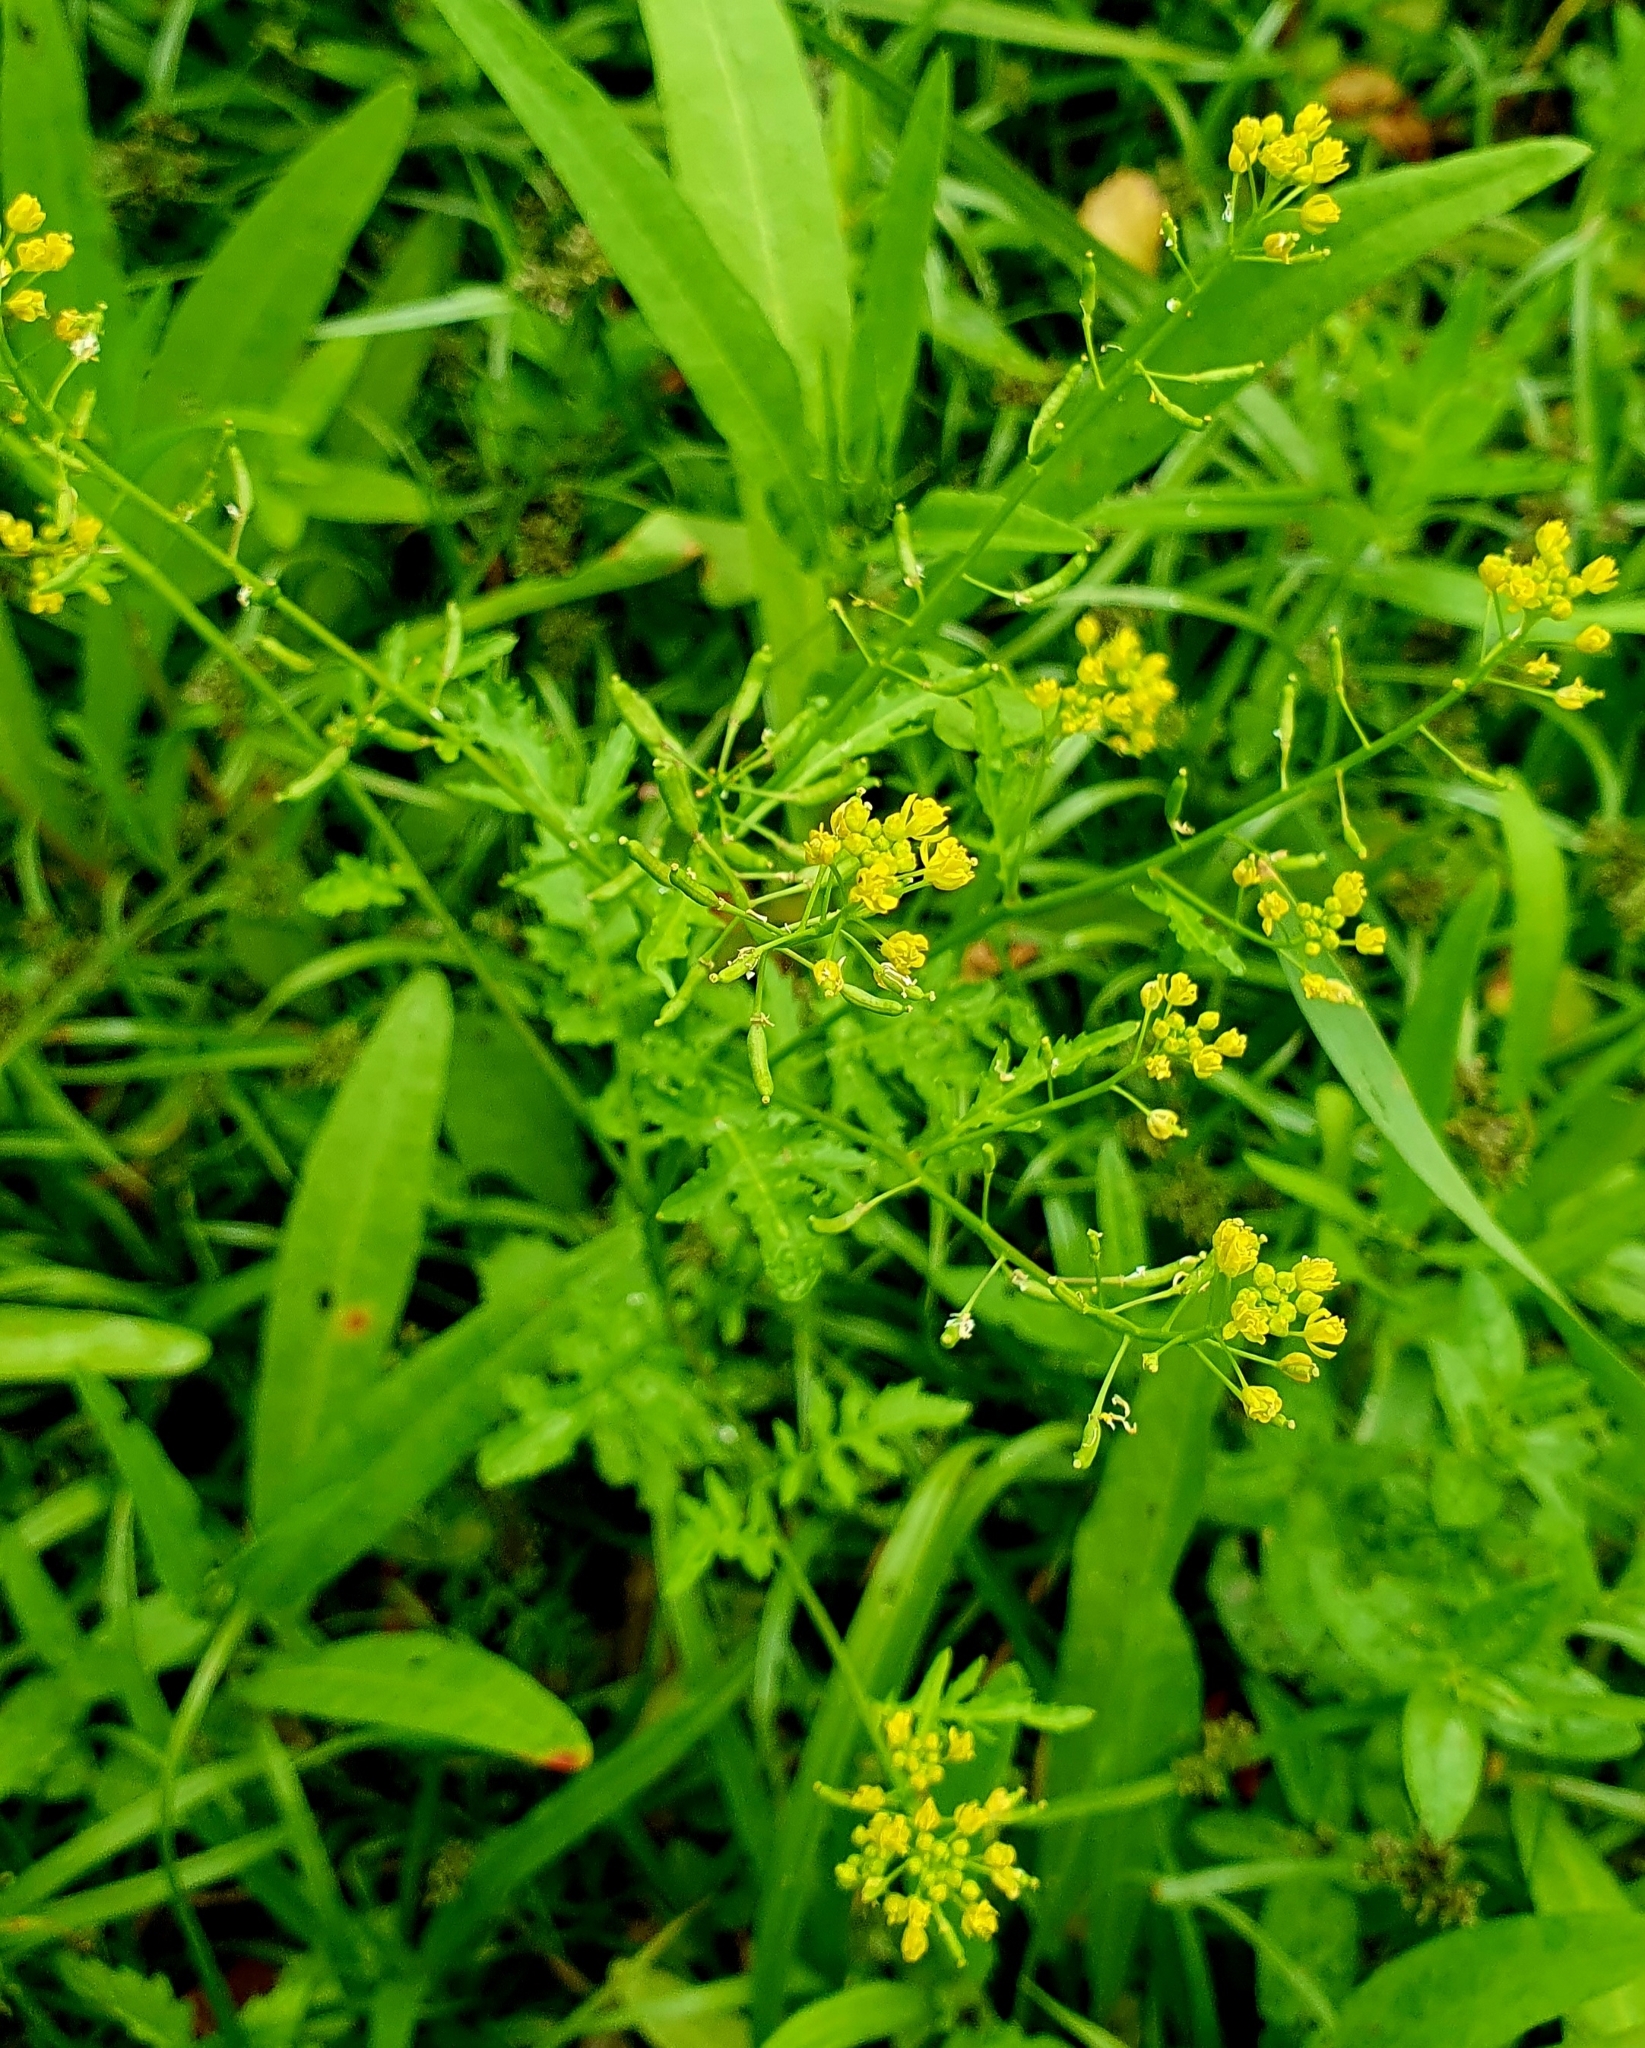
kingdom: Plantae
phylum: Tracheophyta
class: Magnoliopsida
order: Brassicales
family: Brassicaceae
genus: Rorippa
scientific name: Rorippa palustris
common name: Marsh yellow-cress
